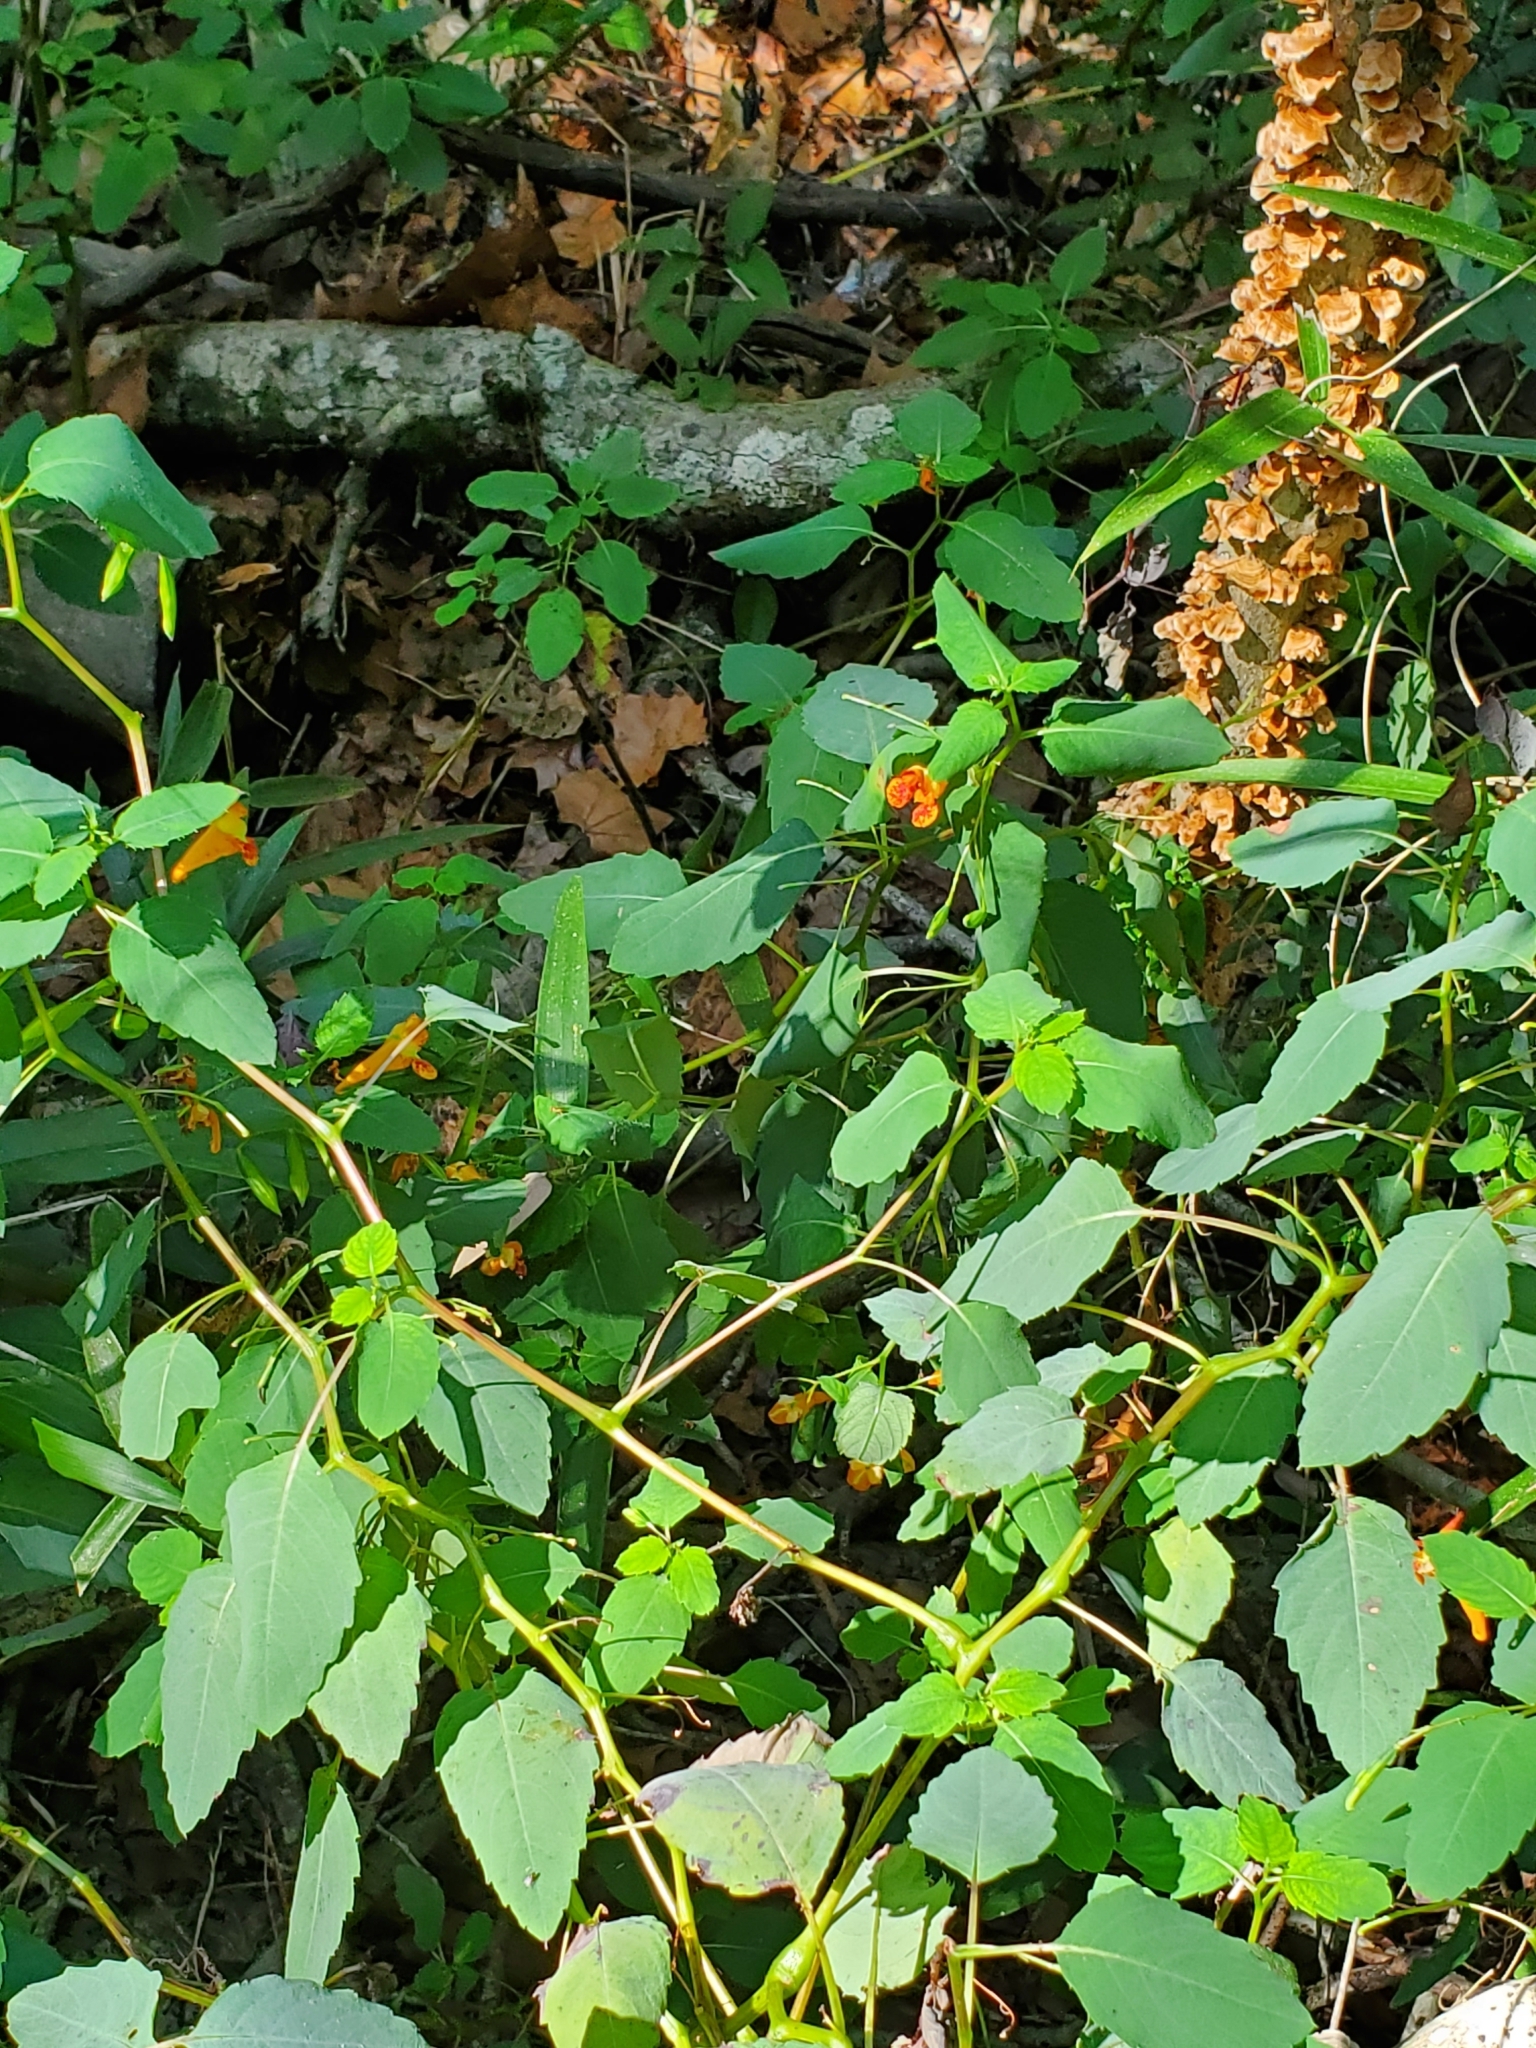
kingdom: Plantae
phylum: Tracheophyta
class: Magnoliopsida
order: Ericales
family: Balsaminaceae
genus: Impatiens
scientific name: Impatiens capensis
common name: Orange balsam
